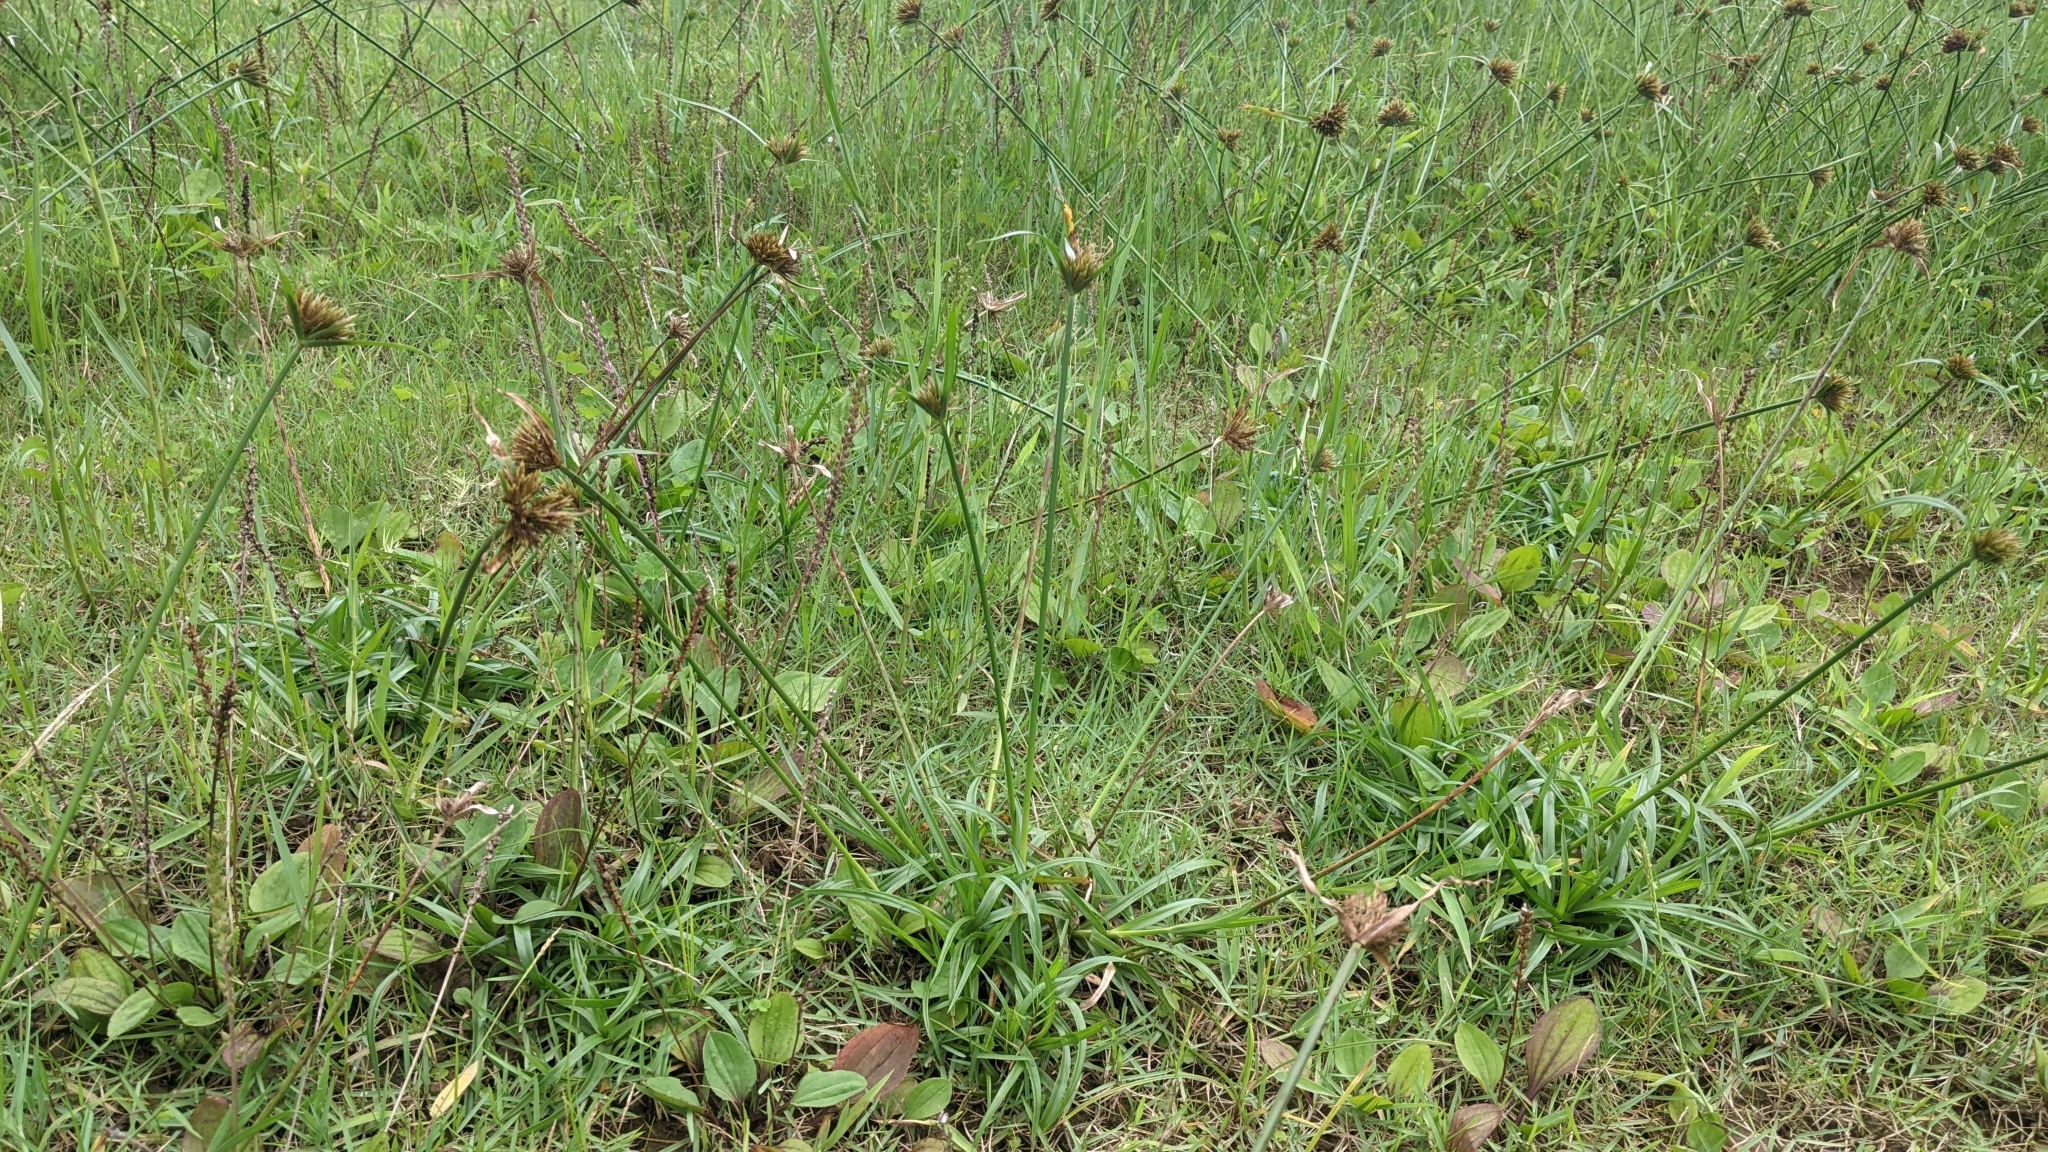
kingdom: Plantae
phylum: Tracheophyta
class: Liliopsida
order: Poales
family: Cyperaceae
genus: Cyperus
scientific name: Cyperus polystachyos
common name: Bunchy flat sedge
